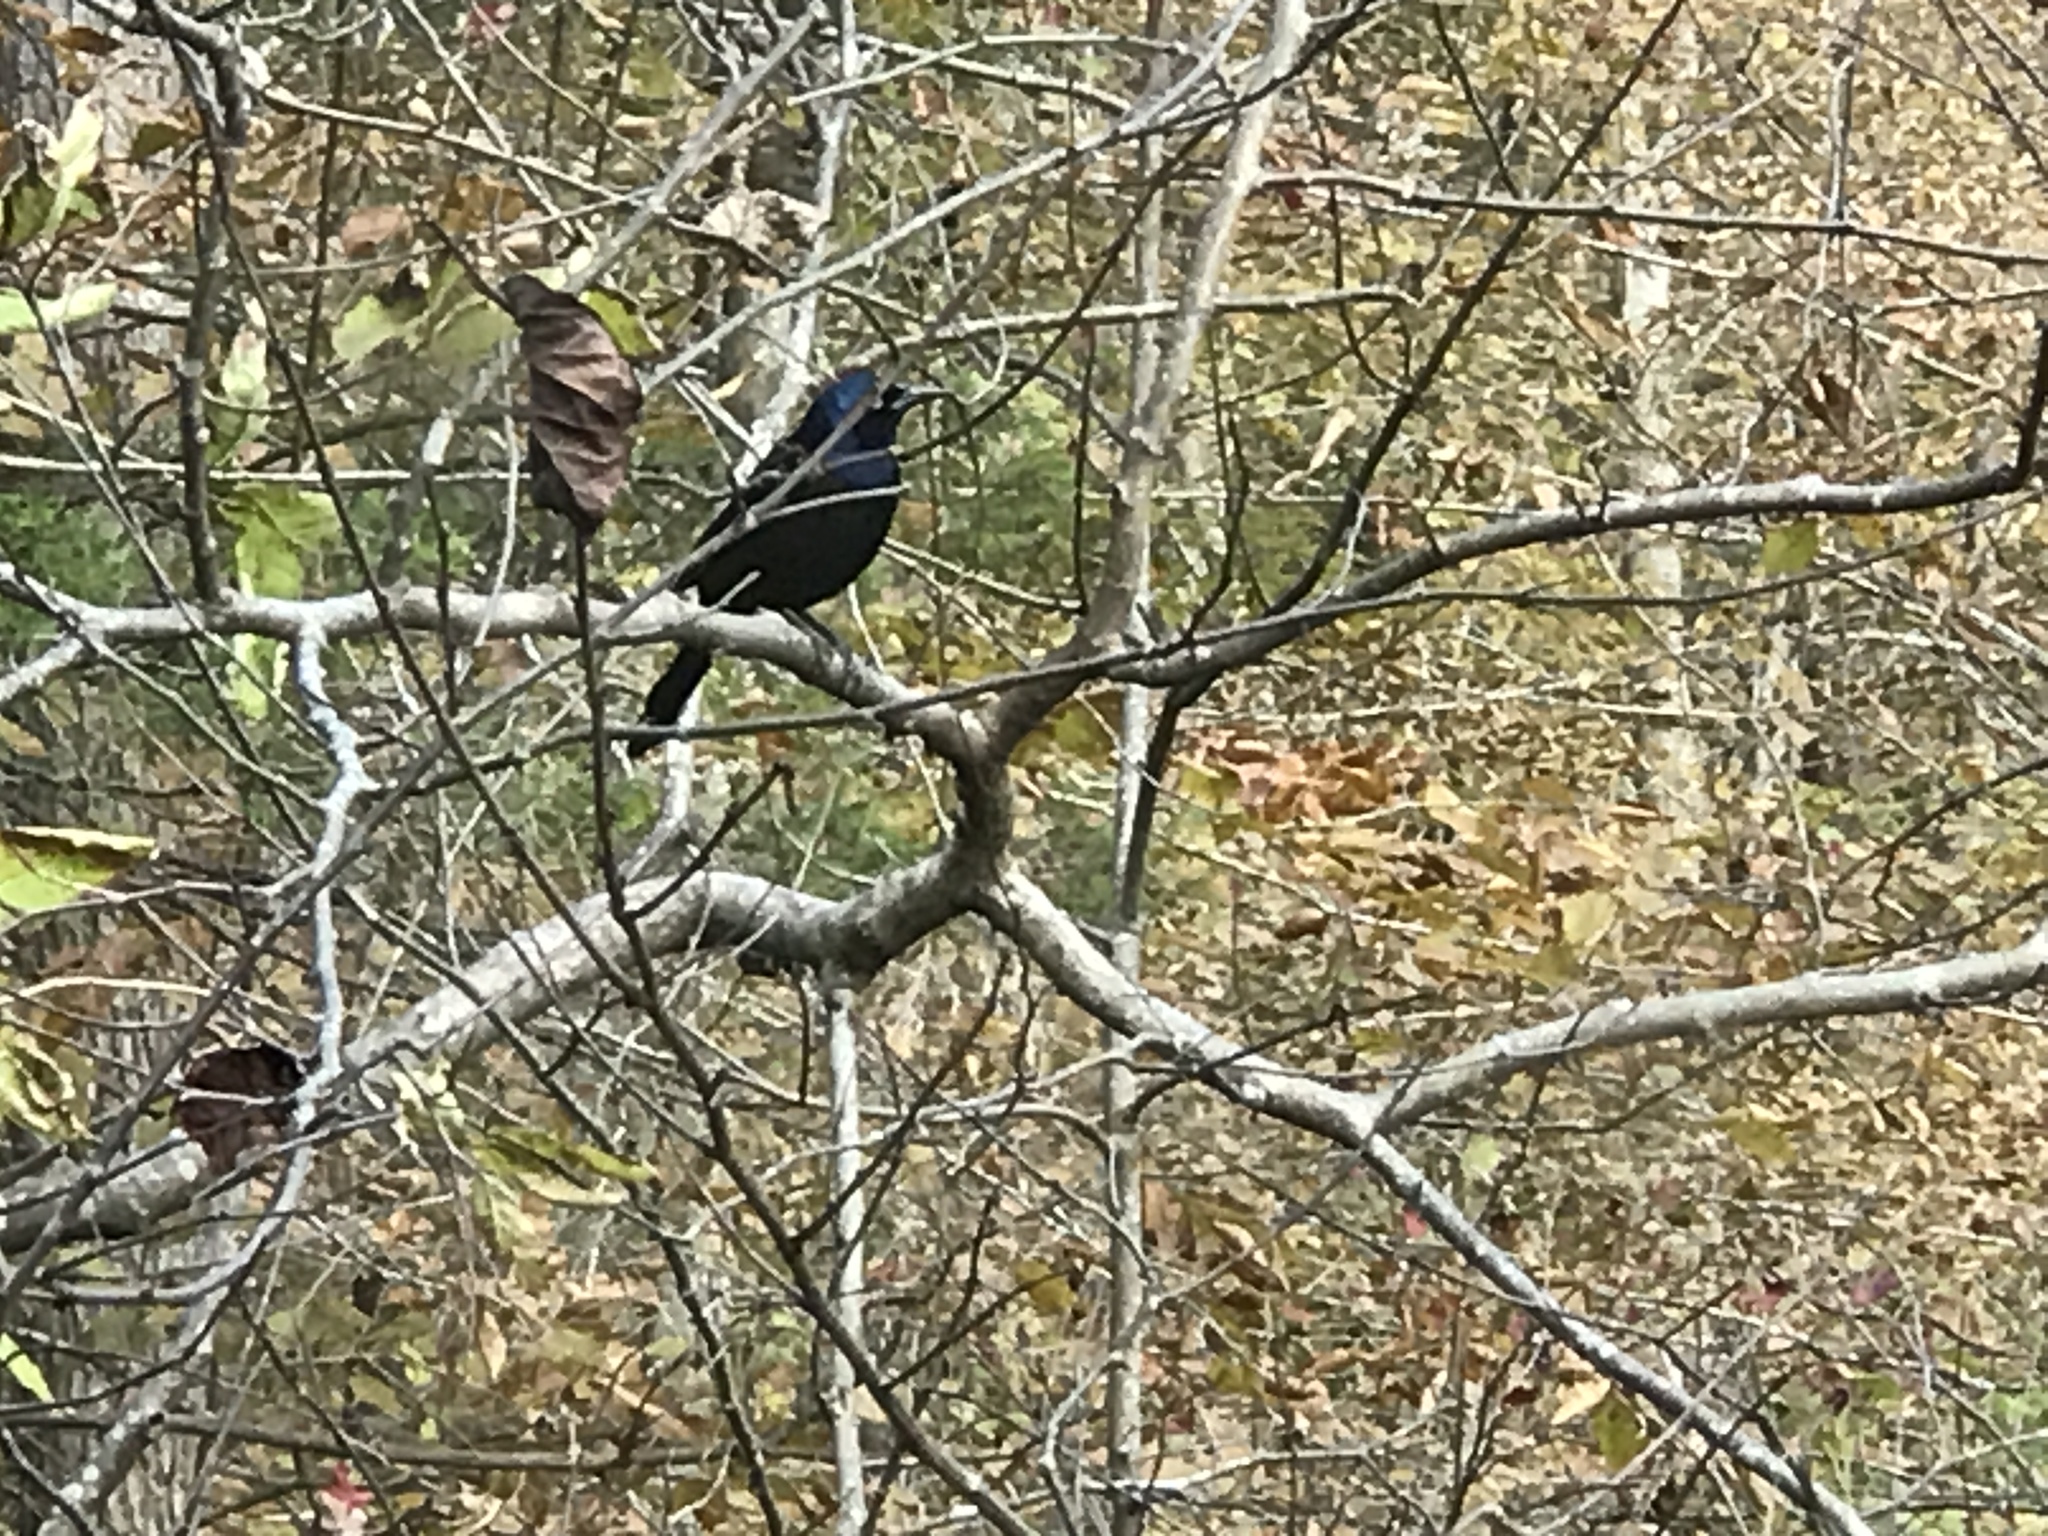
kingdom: Animalia
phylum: Chordata
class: Aves
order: Passeriformes
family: Icteridae
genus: Quiscalus
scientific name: Quiscalus quiscula
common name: Common grackle
